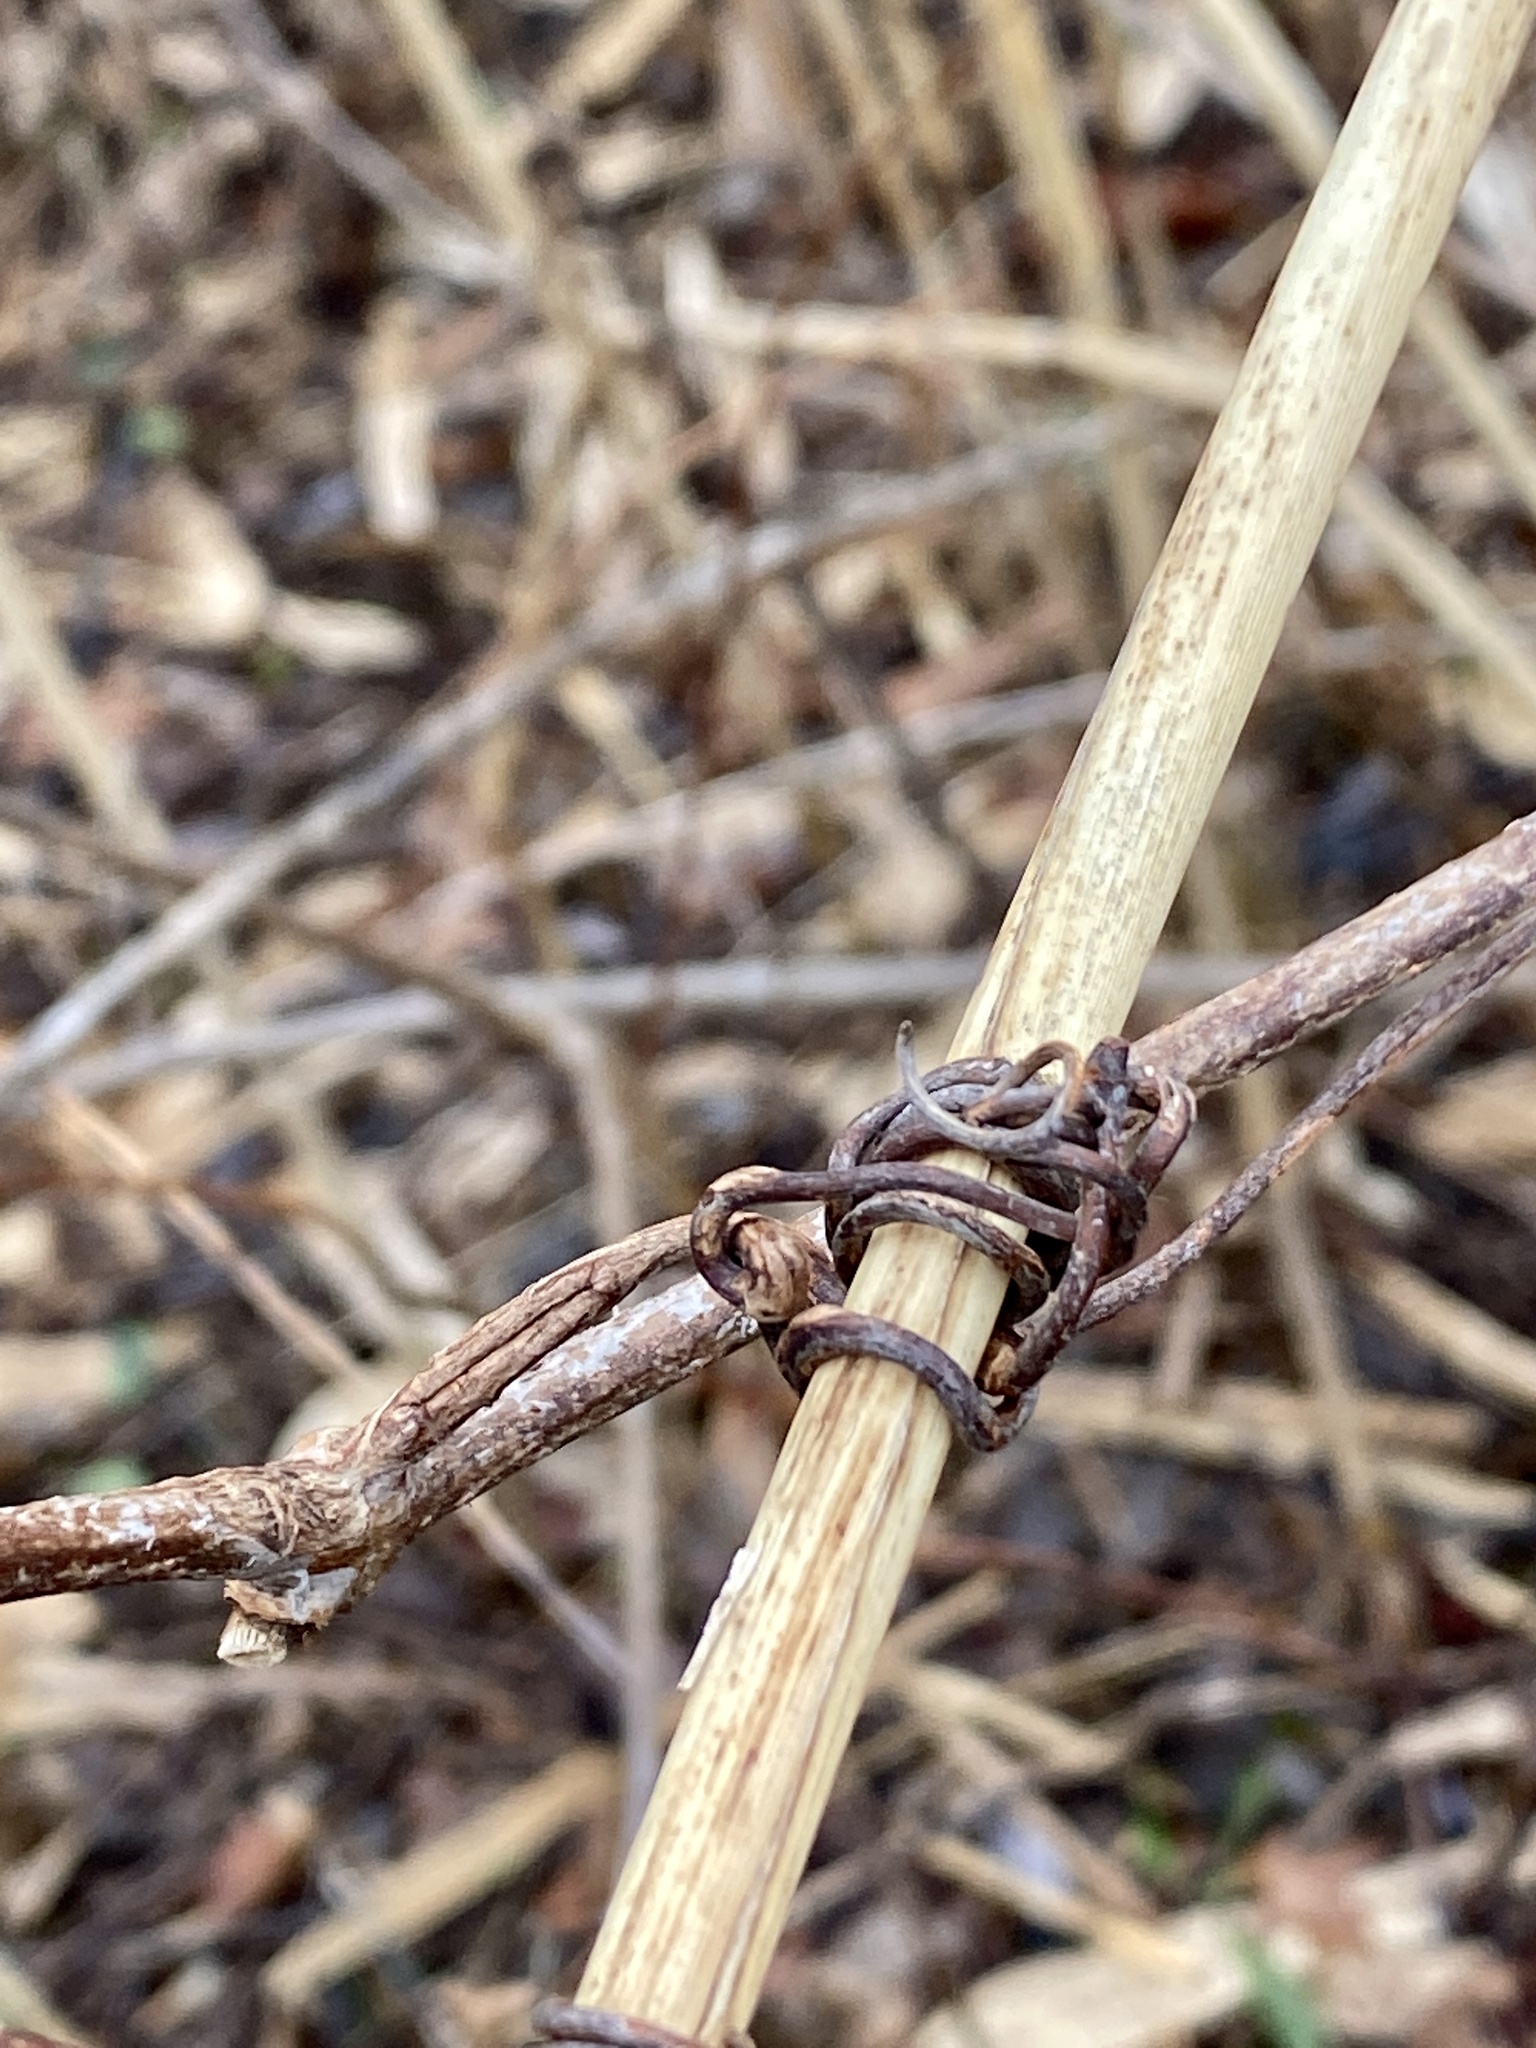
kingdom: Plantae
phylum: Tracheophyta
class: Magnoliopsida
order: Vitales
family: Vitaceae
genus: Ampelopsis
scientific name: Ampelopsis glandulosa
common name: Amur peppervine
